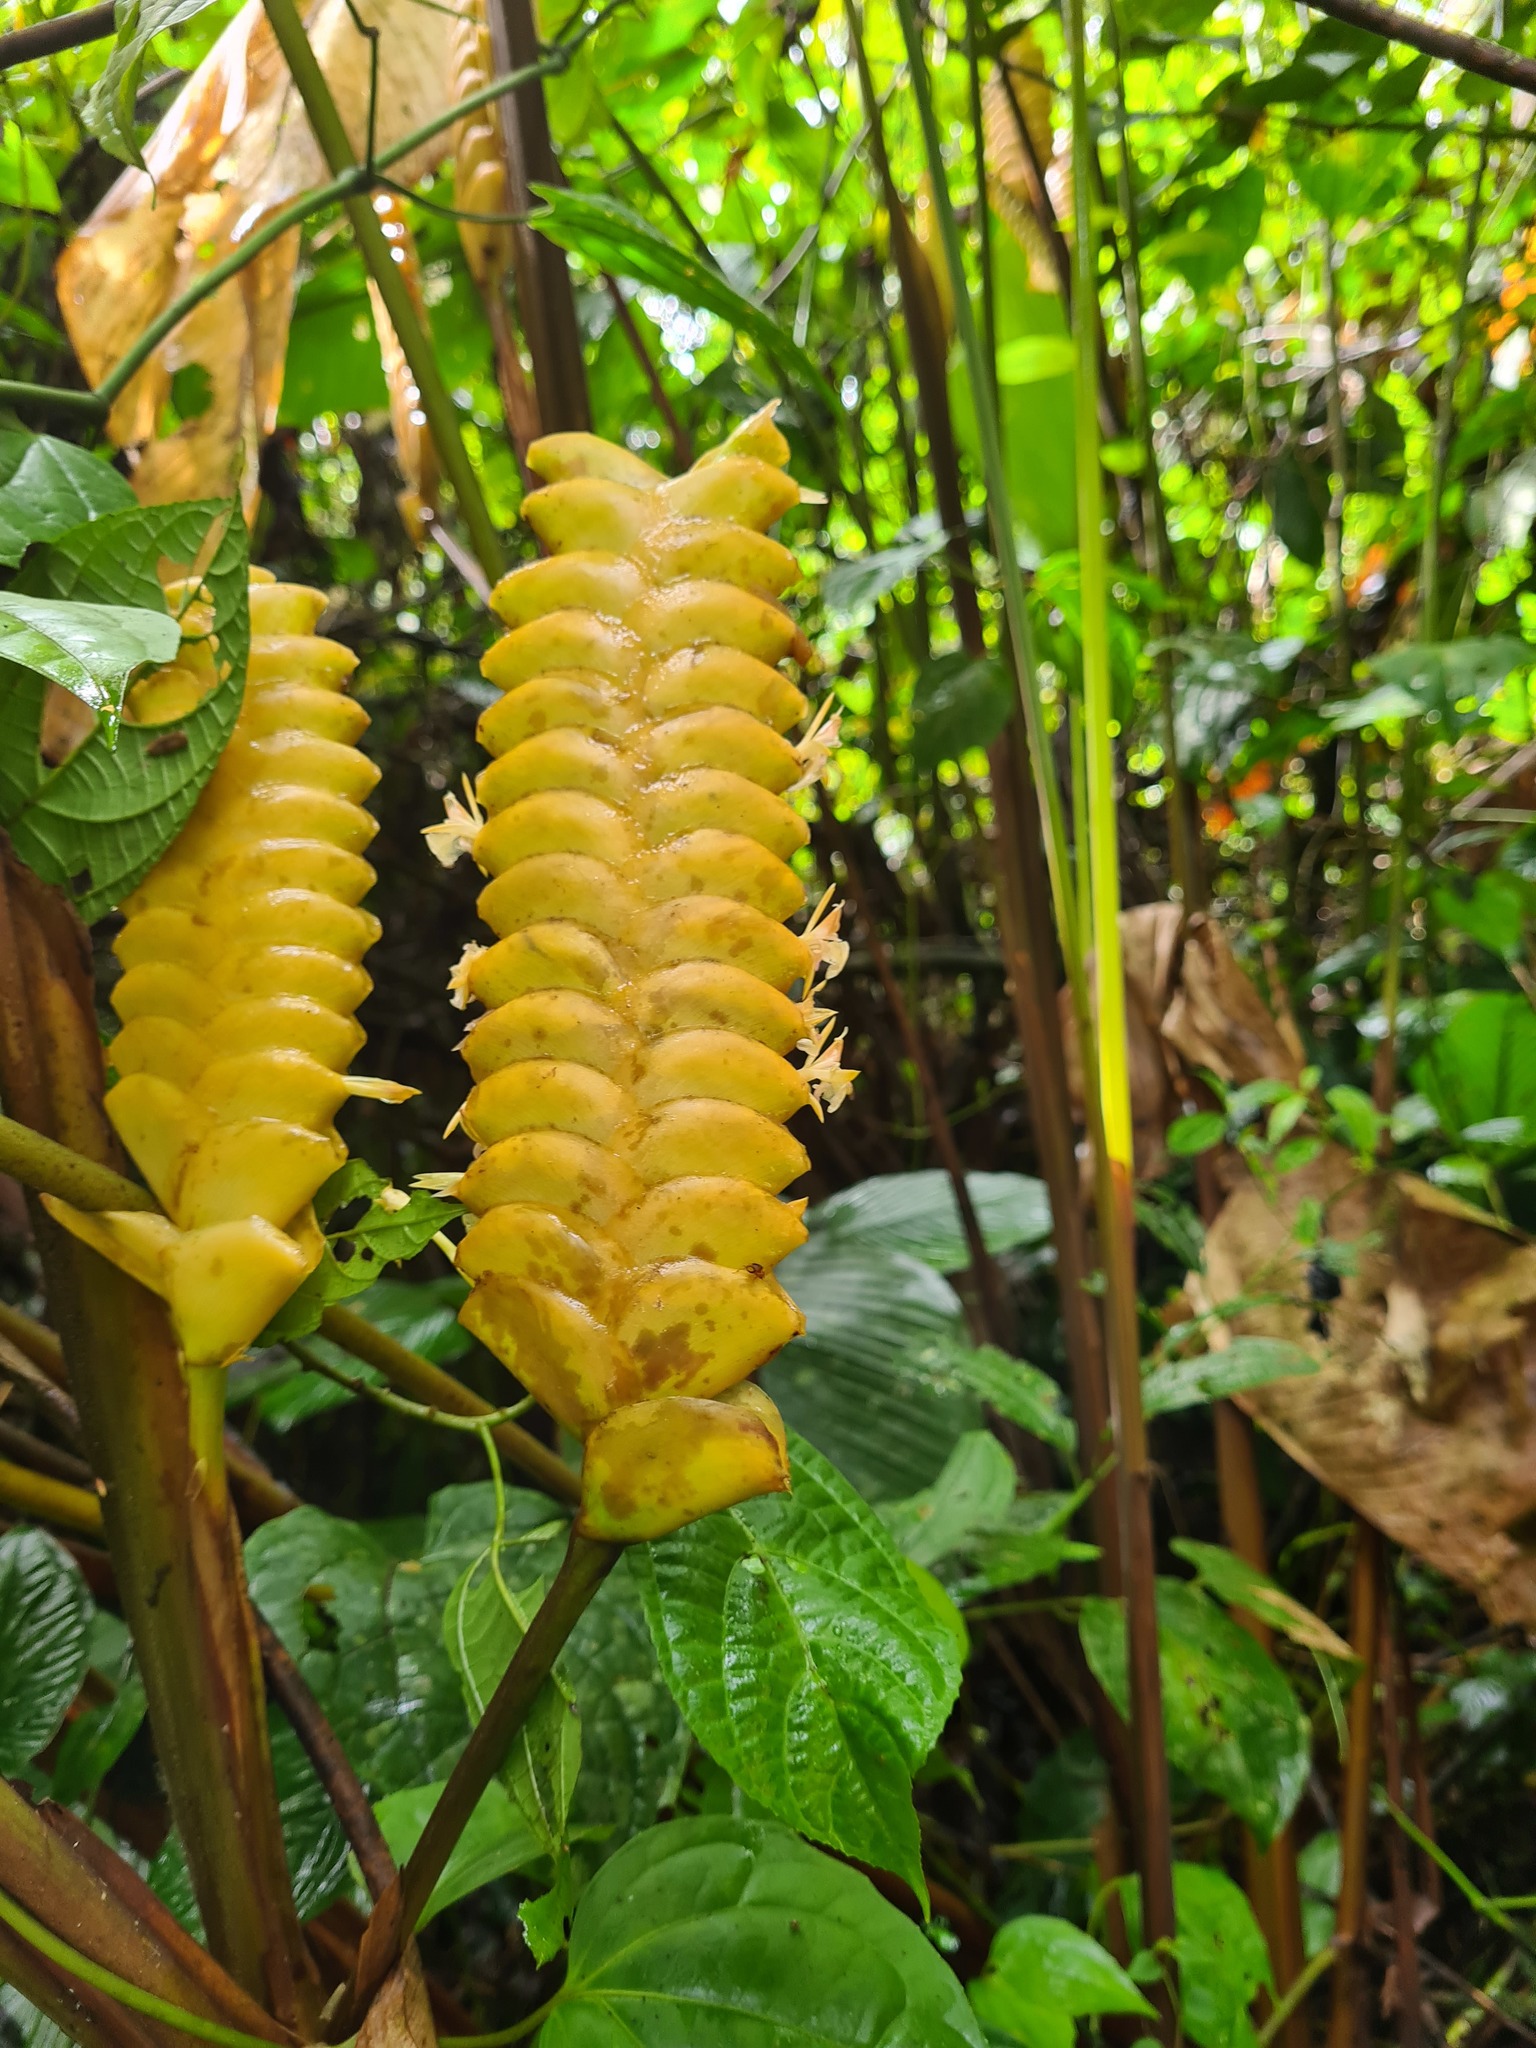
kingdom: Plantae
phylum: Tracheophyta
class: Liliopsida
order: Zingiberales
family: Marantaceae
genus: Calathea
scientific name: Calathea crotalifera
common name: Rattlesnake plant
